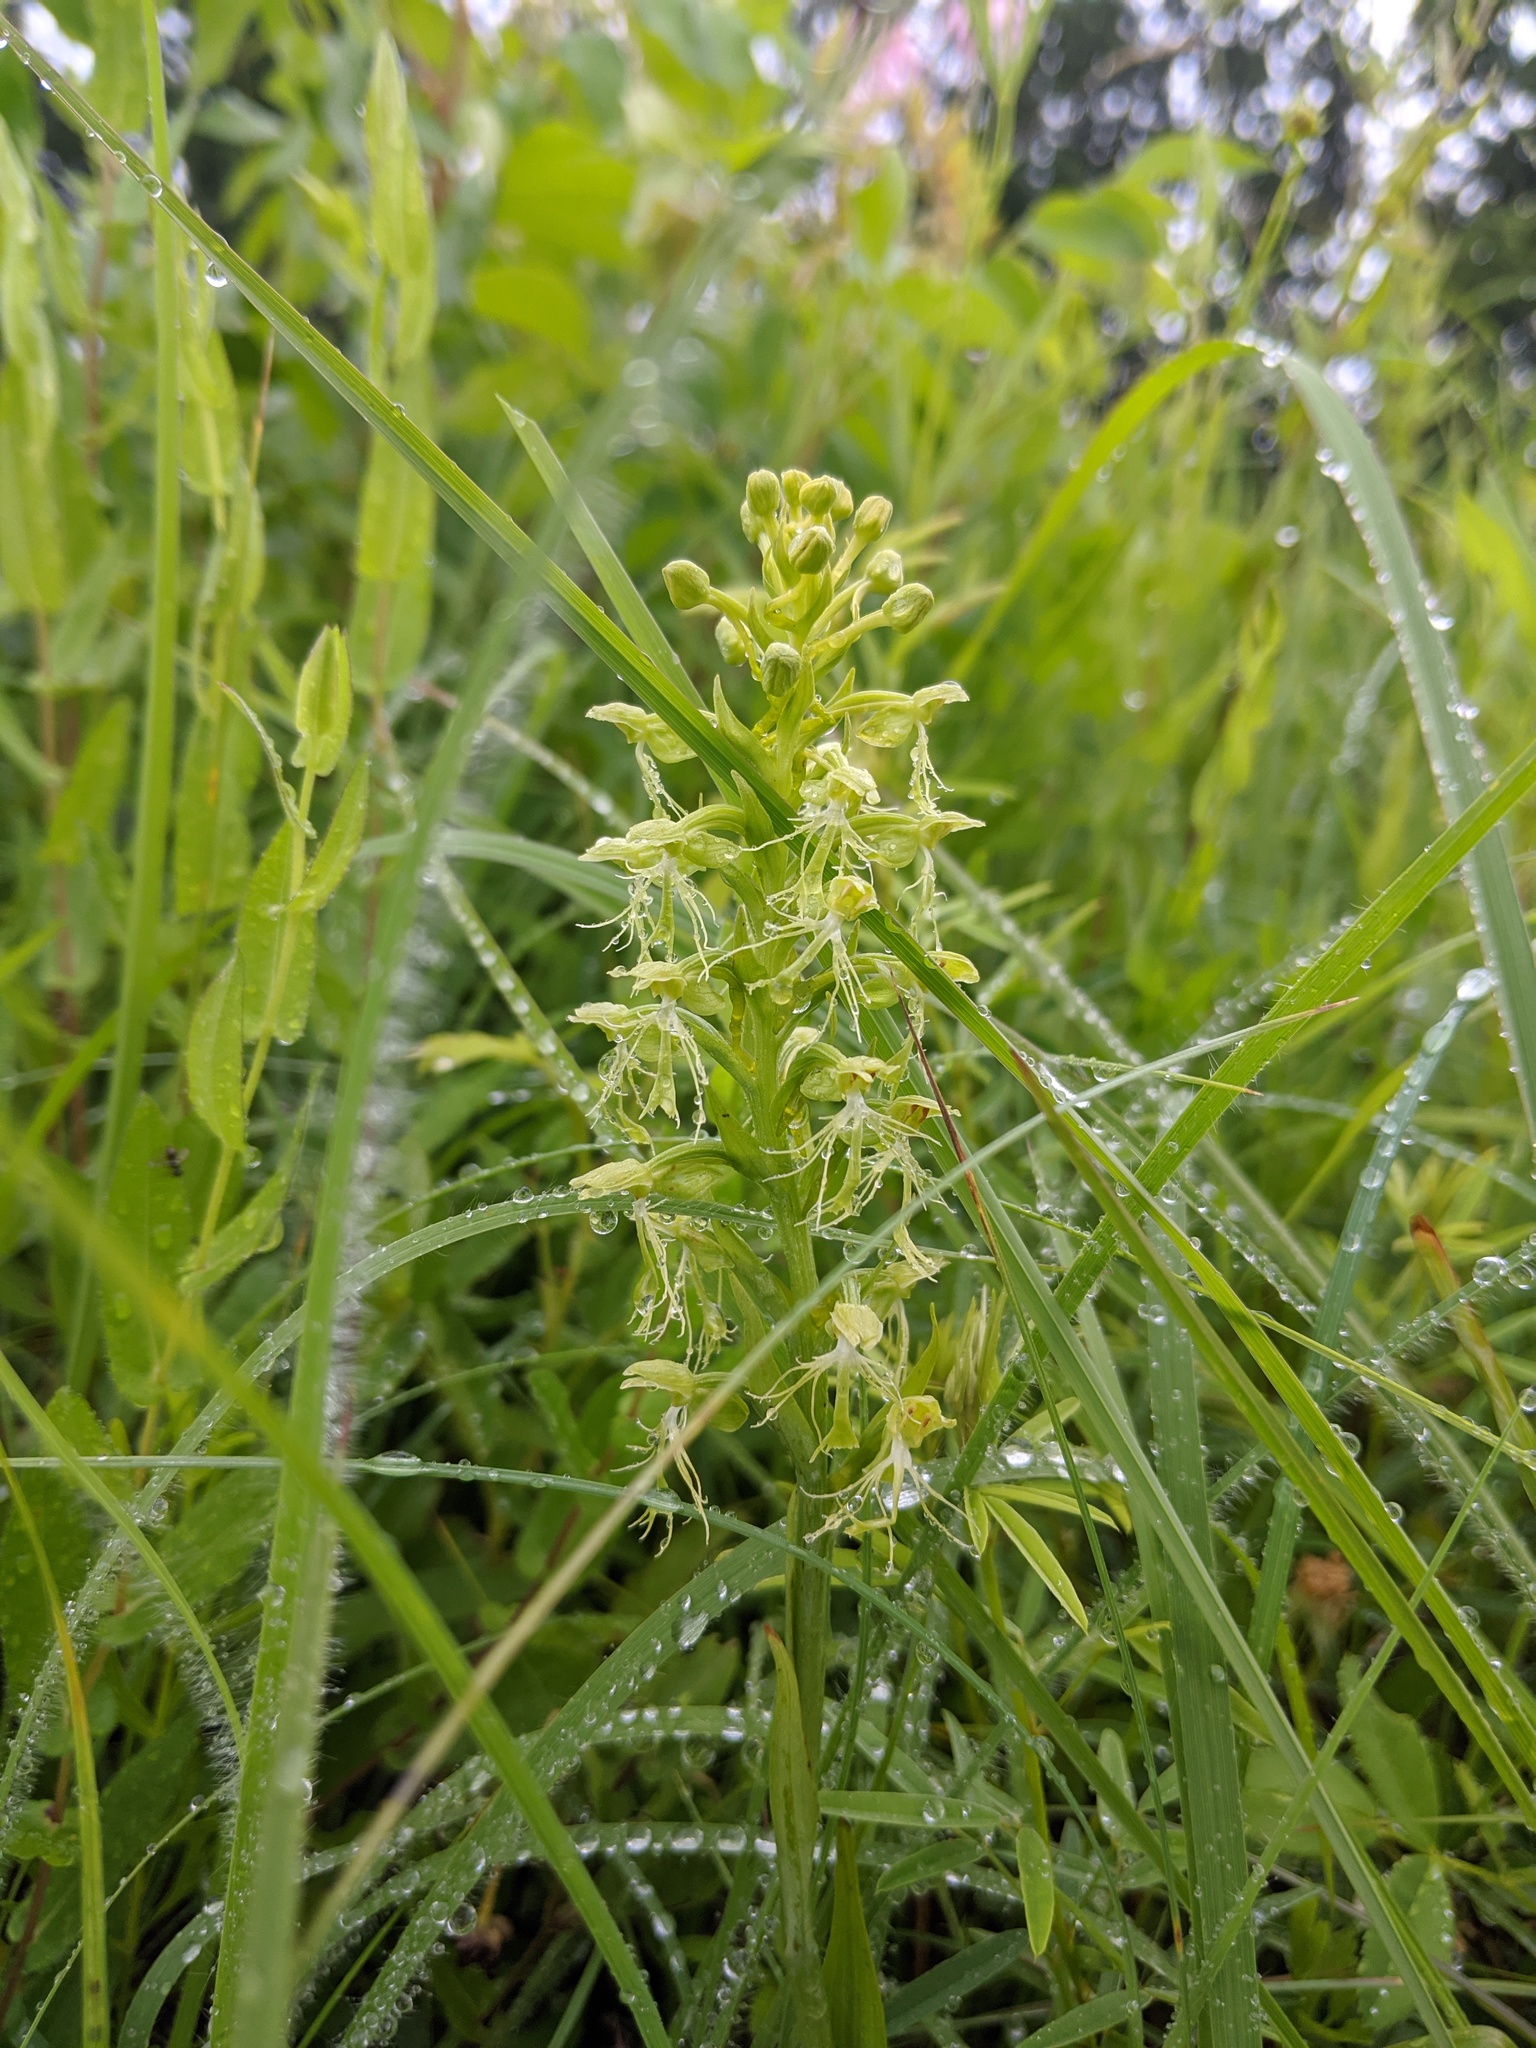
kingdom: Plantae
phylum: Tracheophyta
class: Liliopsida
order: Asparagales
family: Orchidaceae
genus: Platanthera
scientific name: Platanthera lacera
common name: Green fringed orchid
